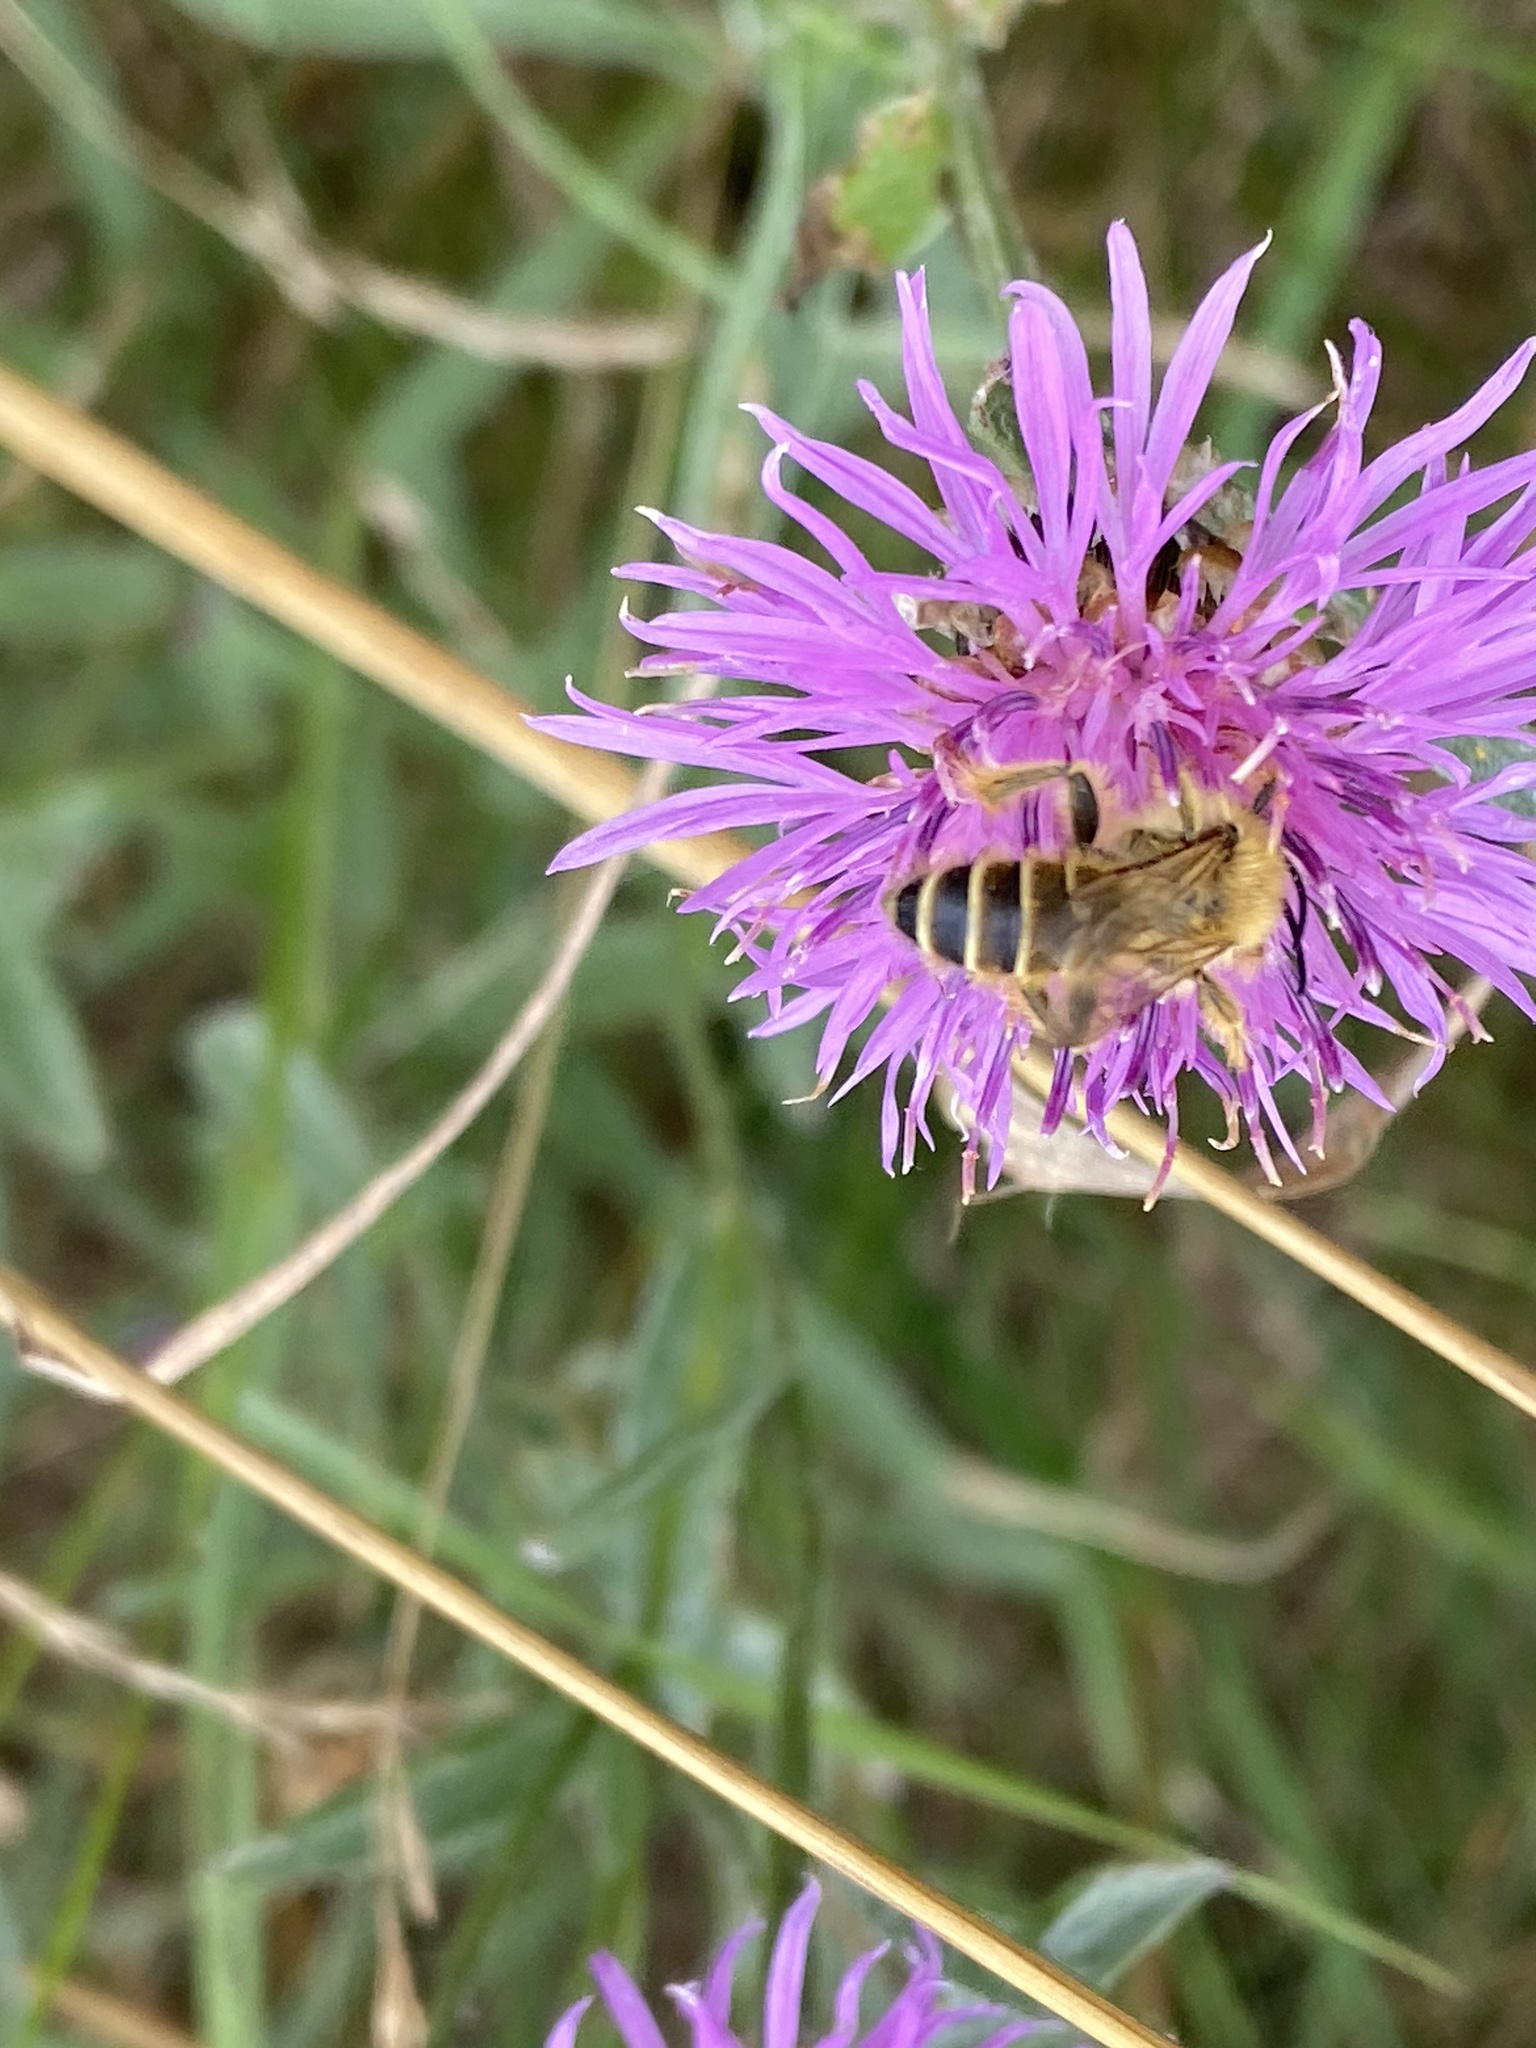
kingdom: Animalia
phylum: Arthropoda
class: Insecta
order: Hymenoptera
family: Melittidae
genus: Dasypoda
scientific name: Dasypoda hirtipes
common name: Pantaloon bee
